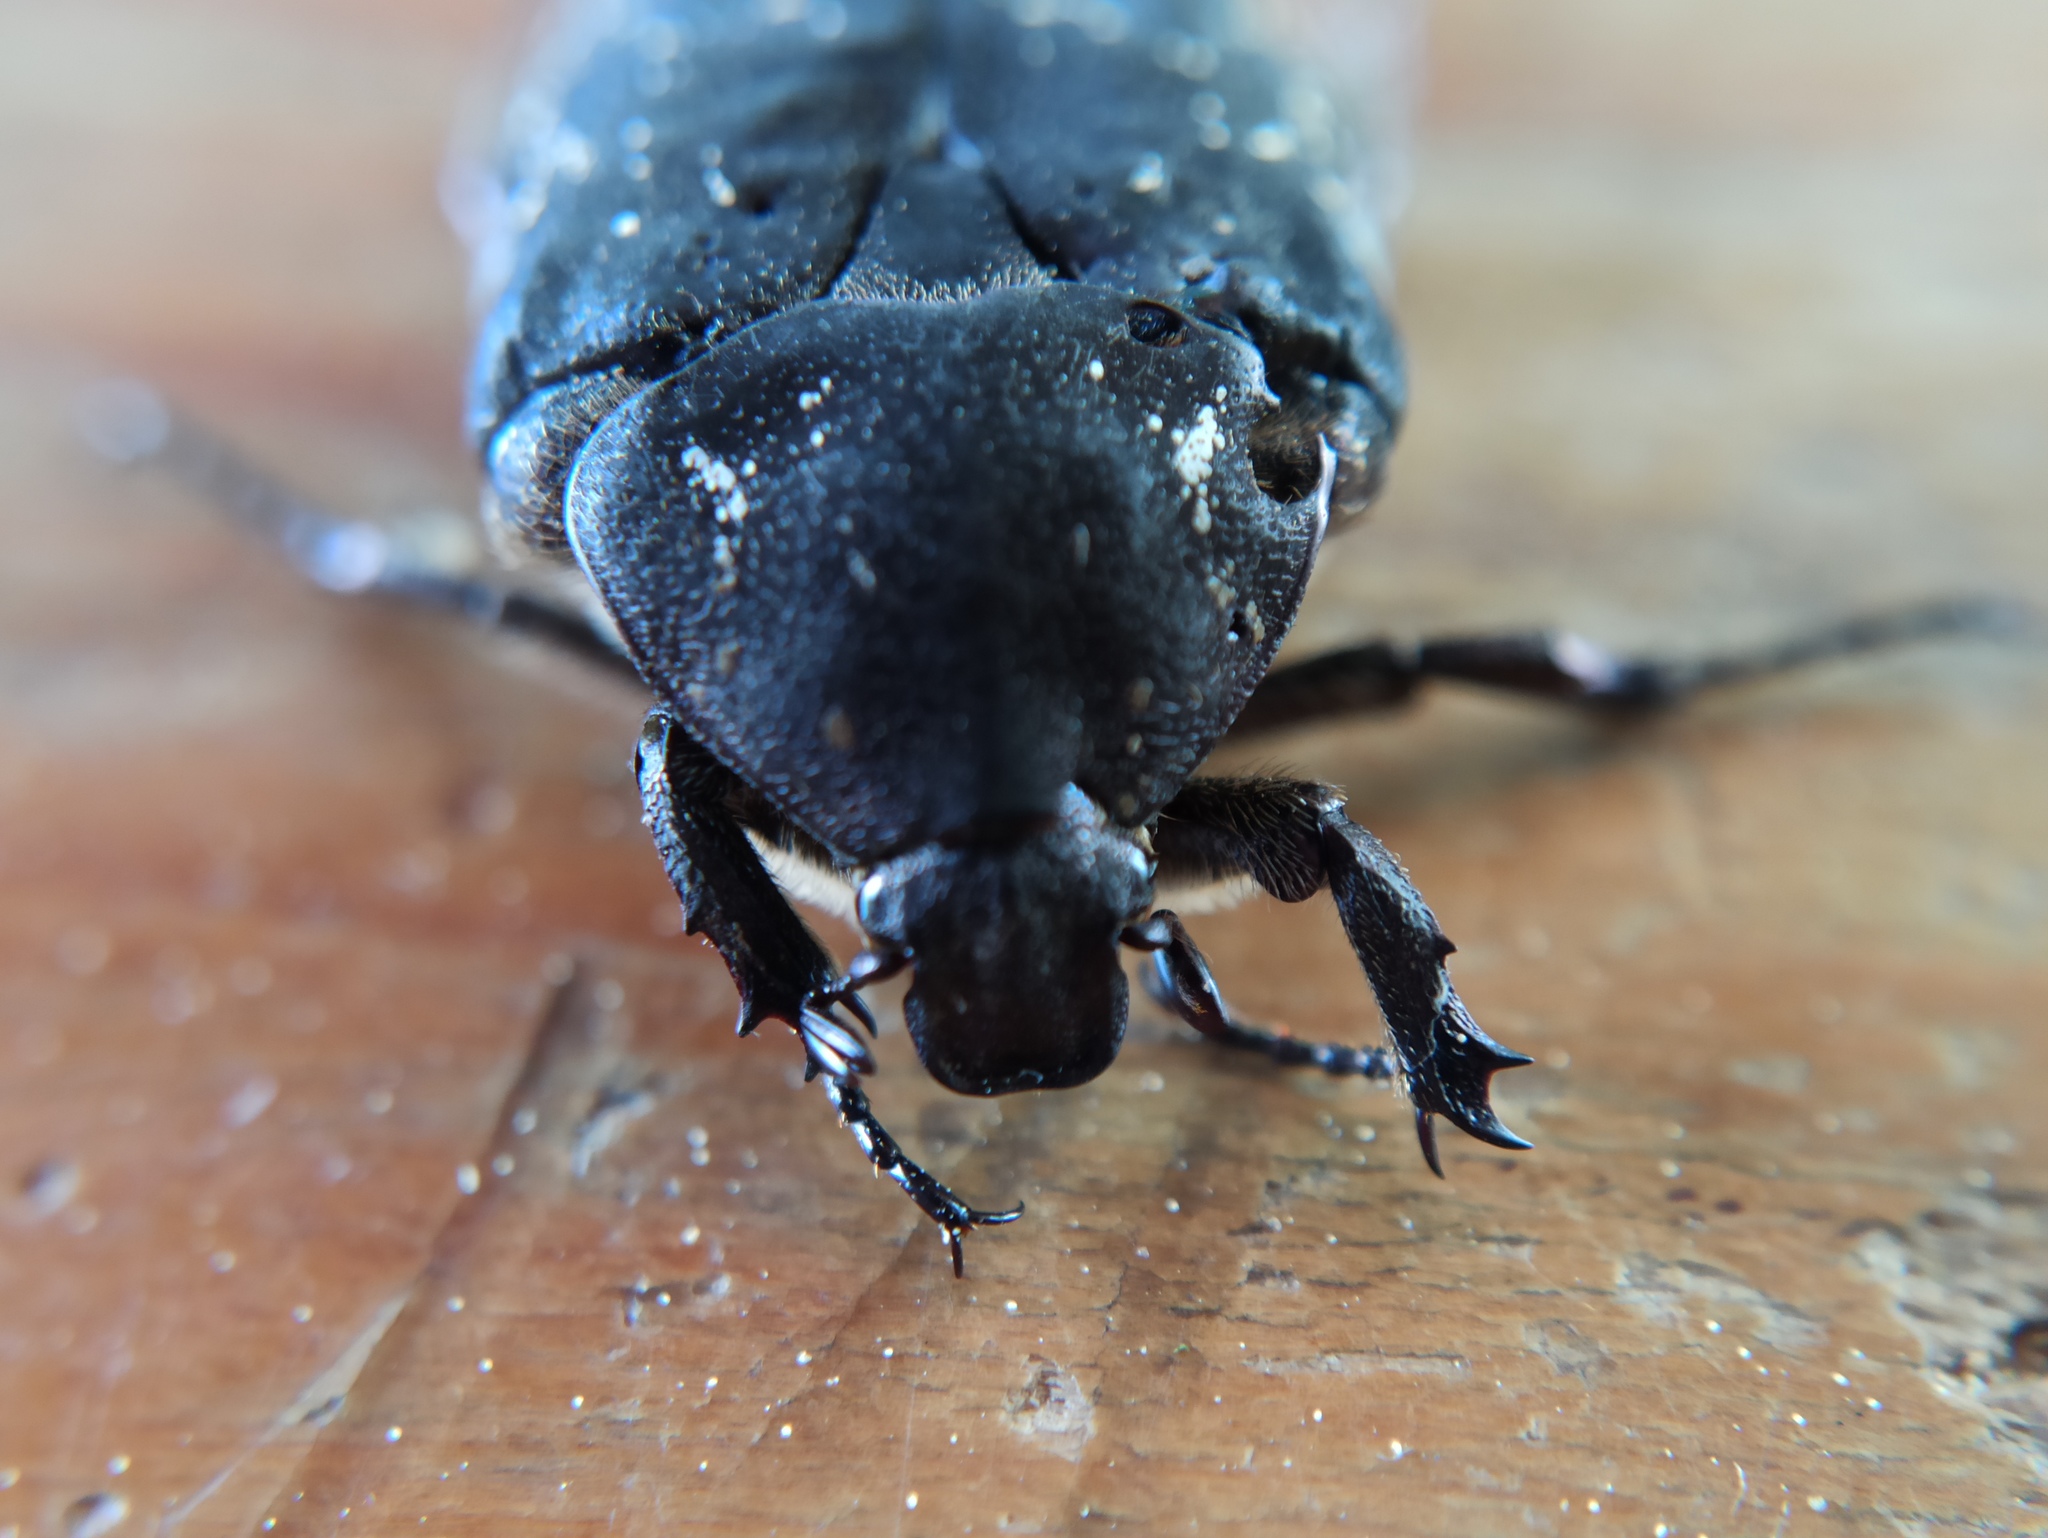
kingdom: Animalia
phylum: Arthropoda
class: Insecta
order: Coleoptera
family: Scarabaeidae
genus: Protaetia
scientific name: Protaetia morio
